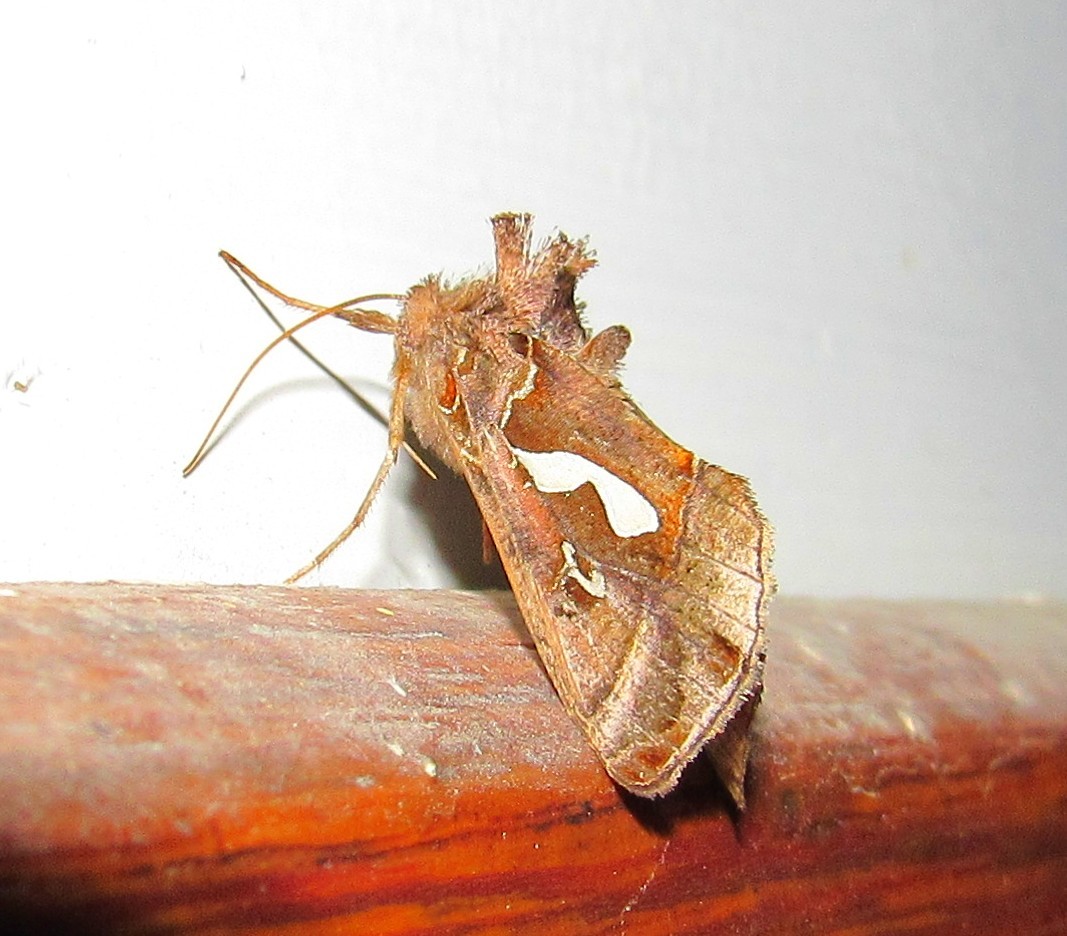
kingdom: Animalia
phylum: Arthropoda
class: Insecta
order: Lepidoptera
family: Noctuidae
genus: Megalographa
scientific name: Megalographa biloba
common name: Cutworm
